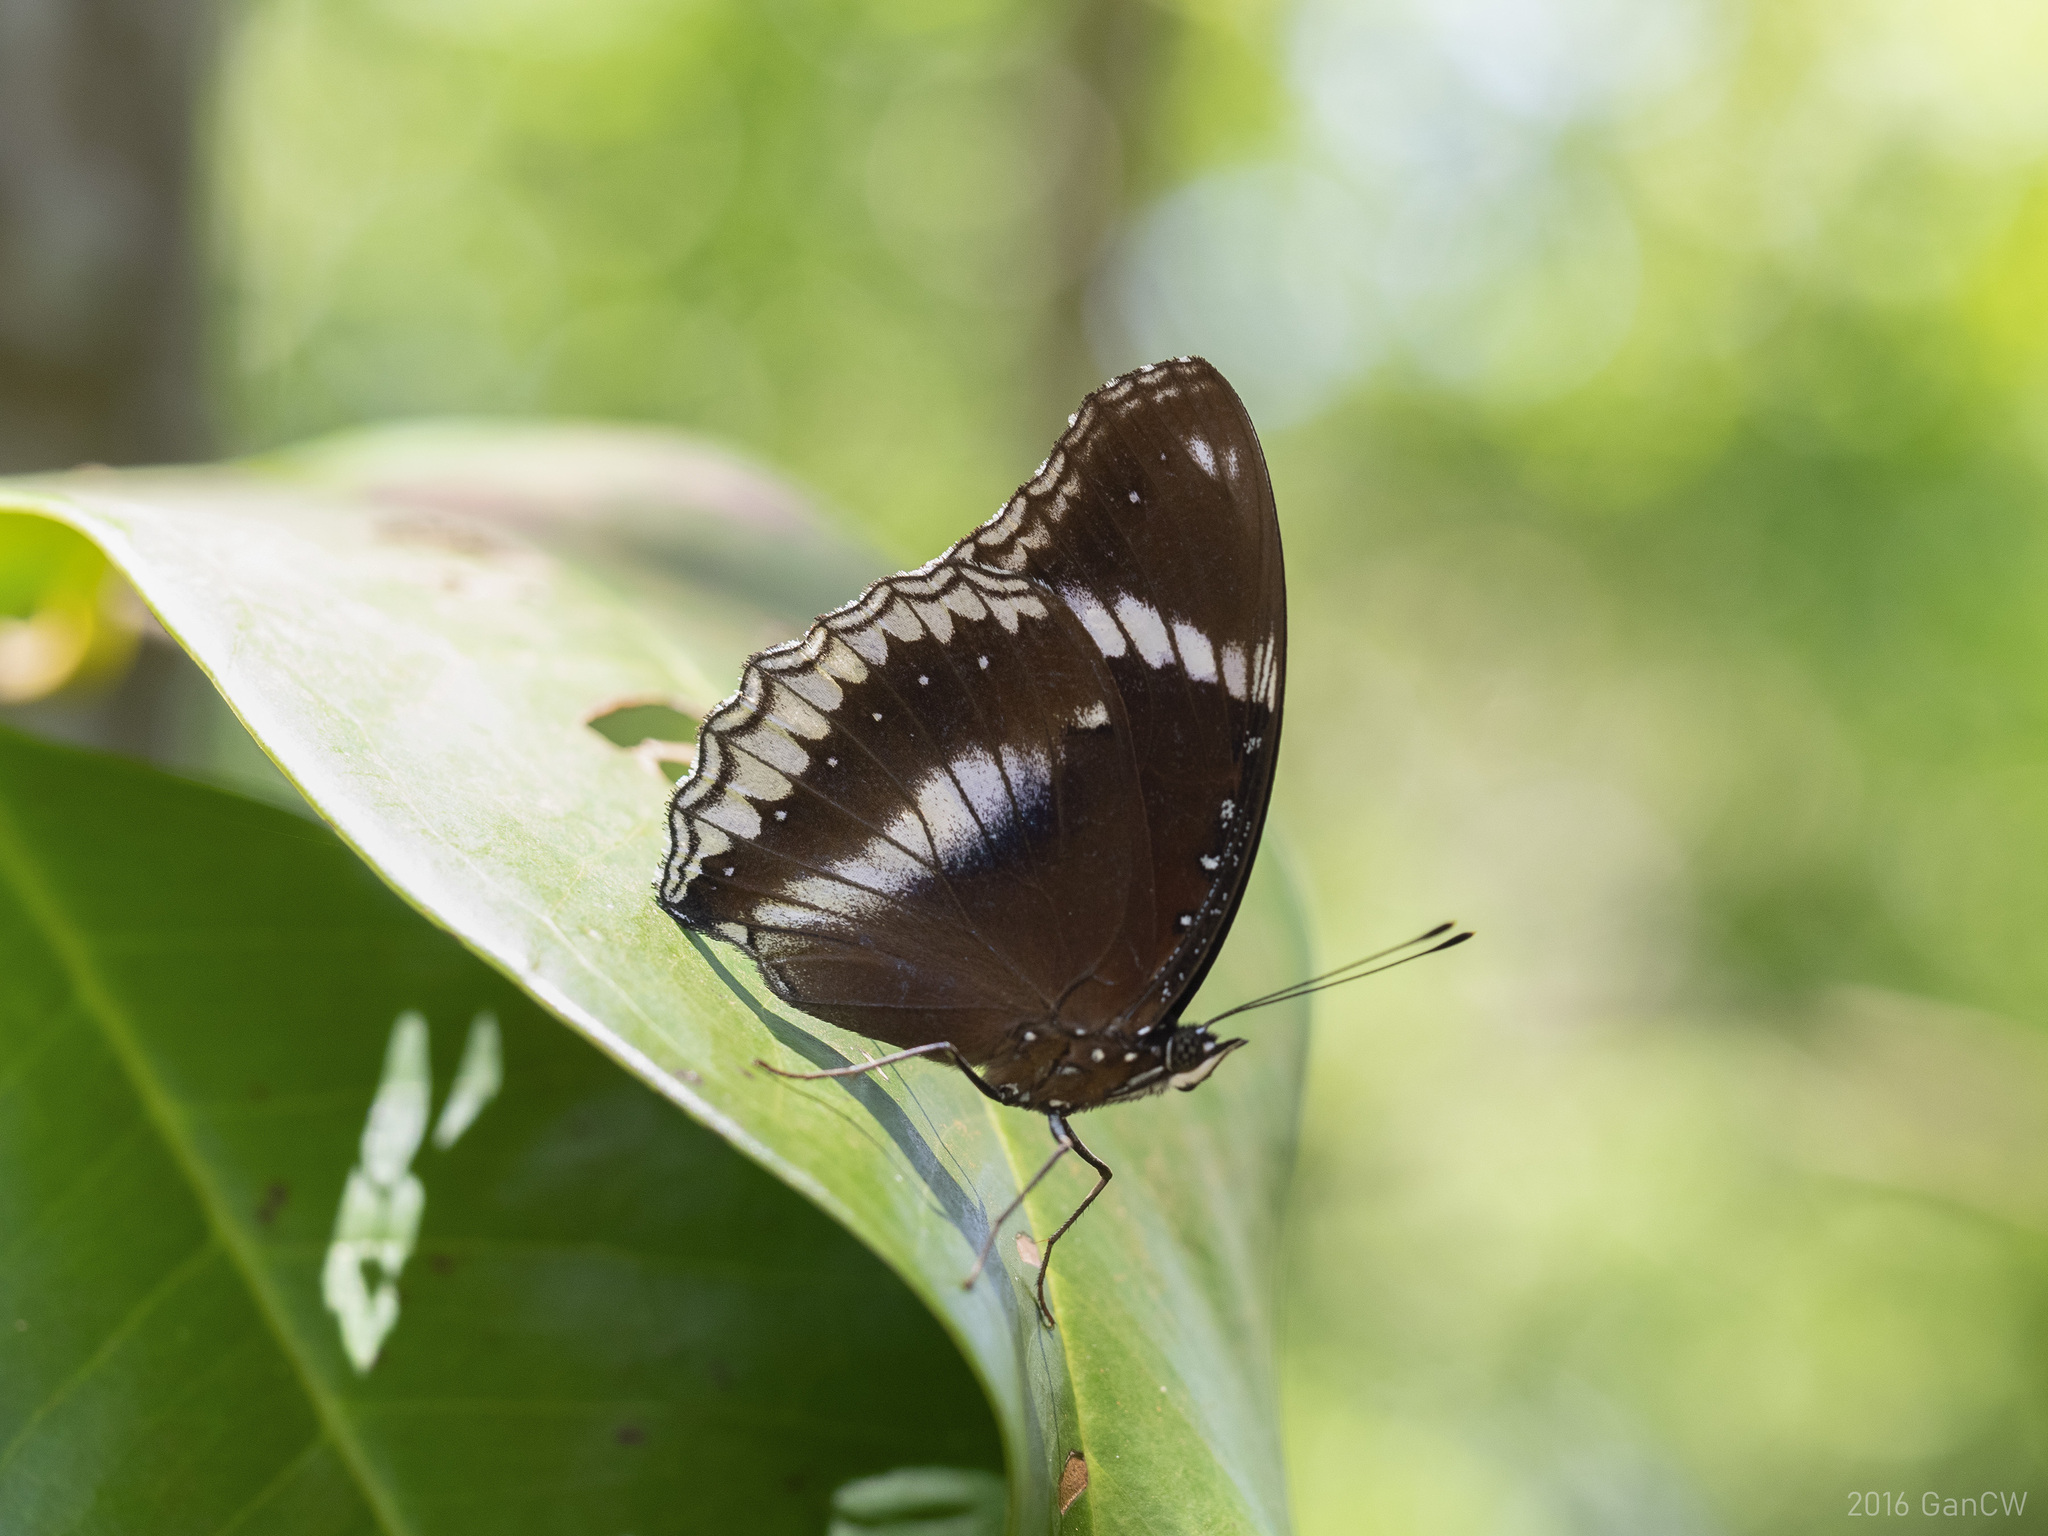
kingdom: Animalia
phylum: Arthropoda
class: Insecta
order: Lepidoptera
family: Nymphalidae
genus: Hypolimnas
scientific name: Hypolimnas bolina
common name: Great eggfly
